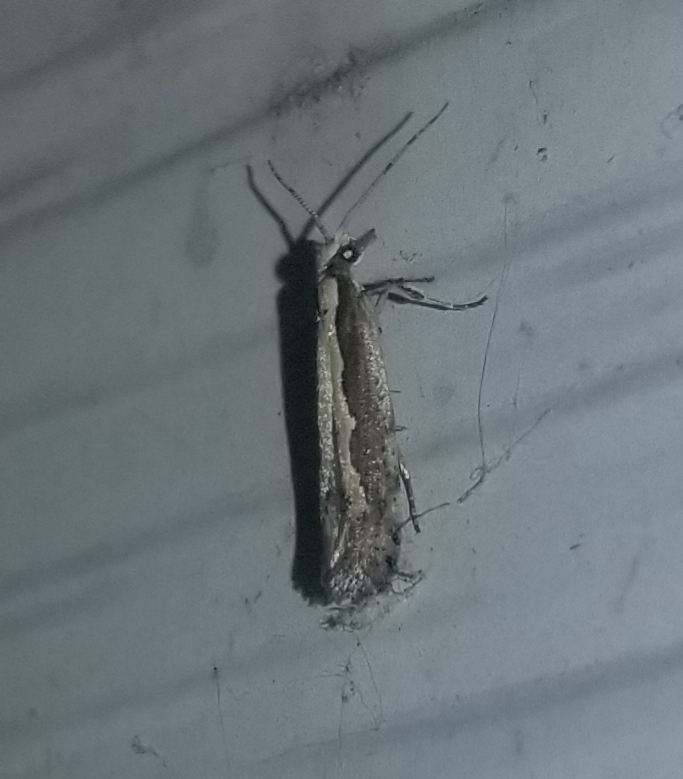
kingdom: Animalia
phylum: Arthropoda
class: Insecta
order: Lepidoptera
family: Plutellidae
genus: Plutella
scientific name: Plutella xylostella
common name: Diamond-back moth
